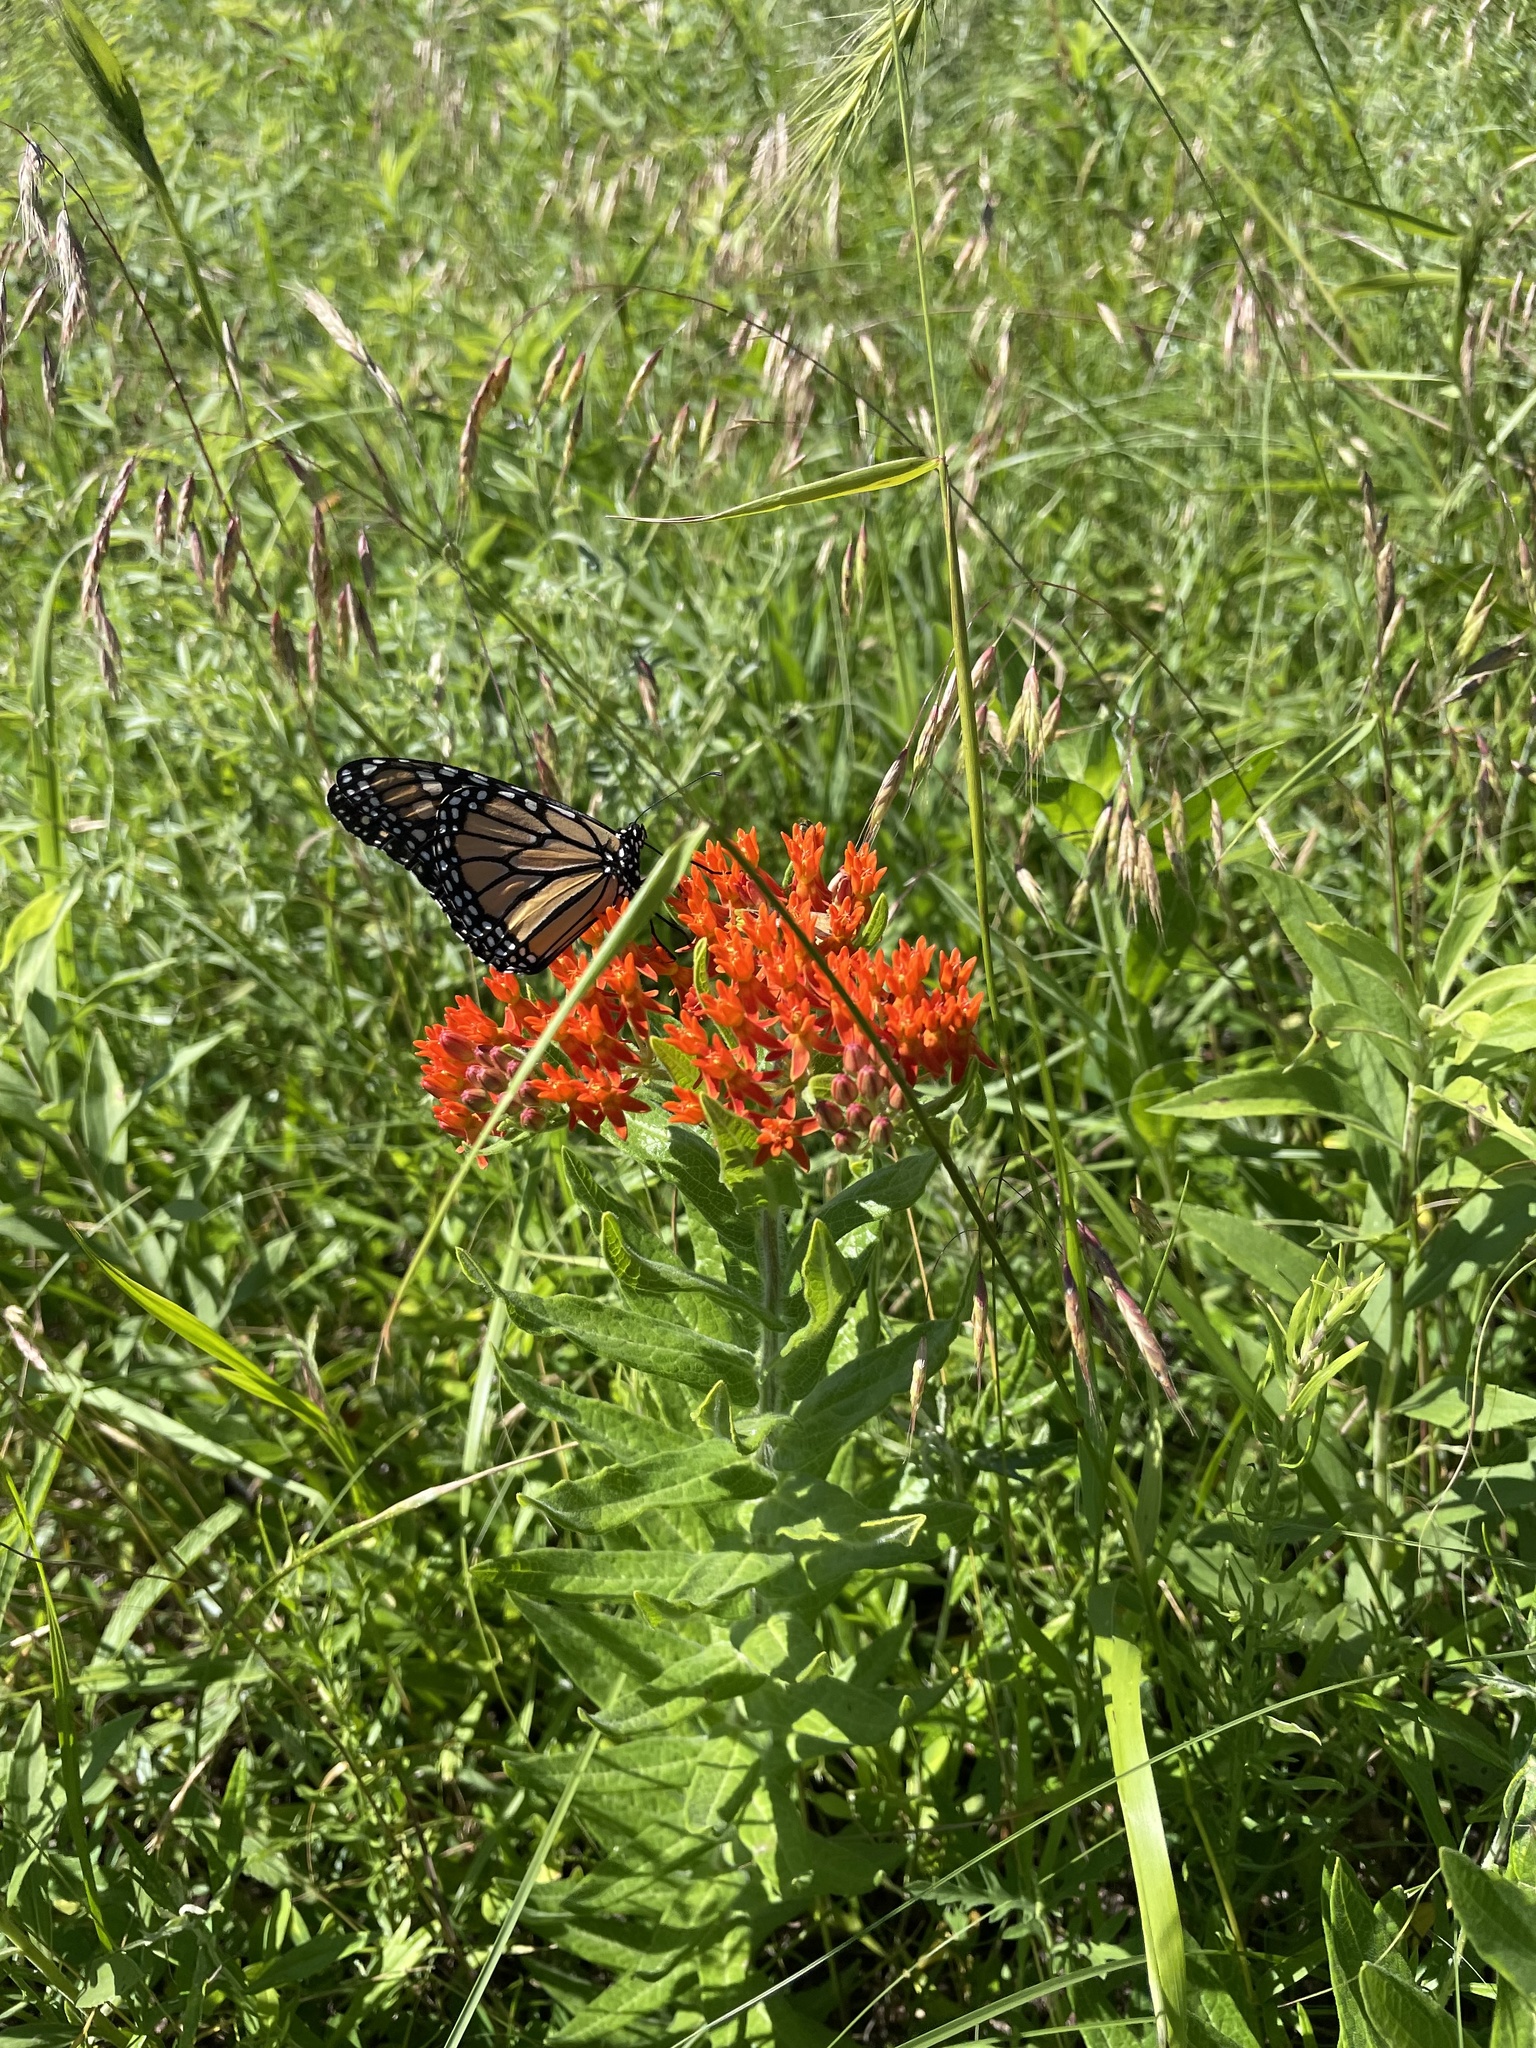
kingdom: Animalia
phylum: Arthropoda
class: Insecta
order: Lepidoptera
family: Nymphalidae
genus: Danaus
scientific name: Danaus plexippus
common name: Monarch
